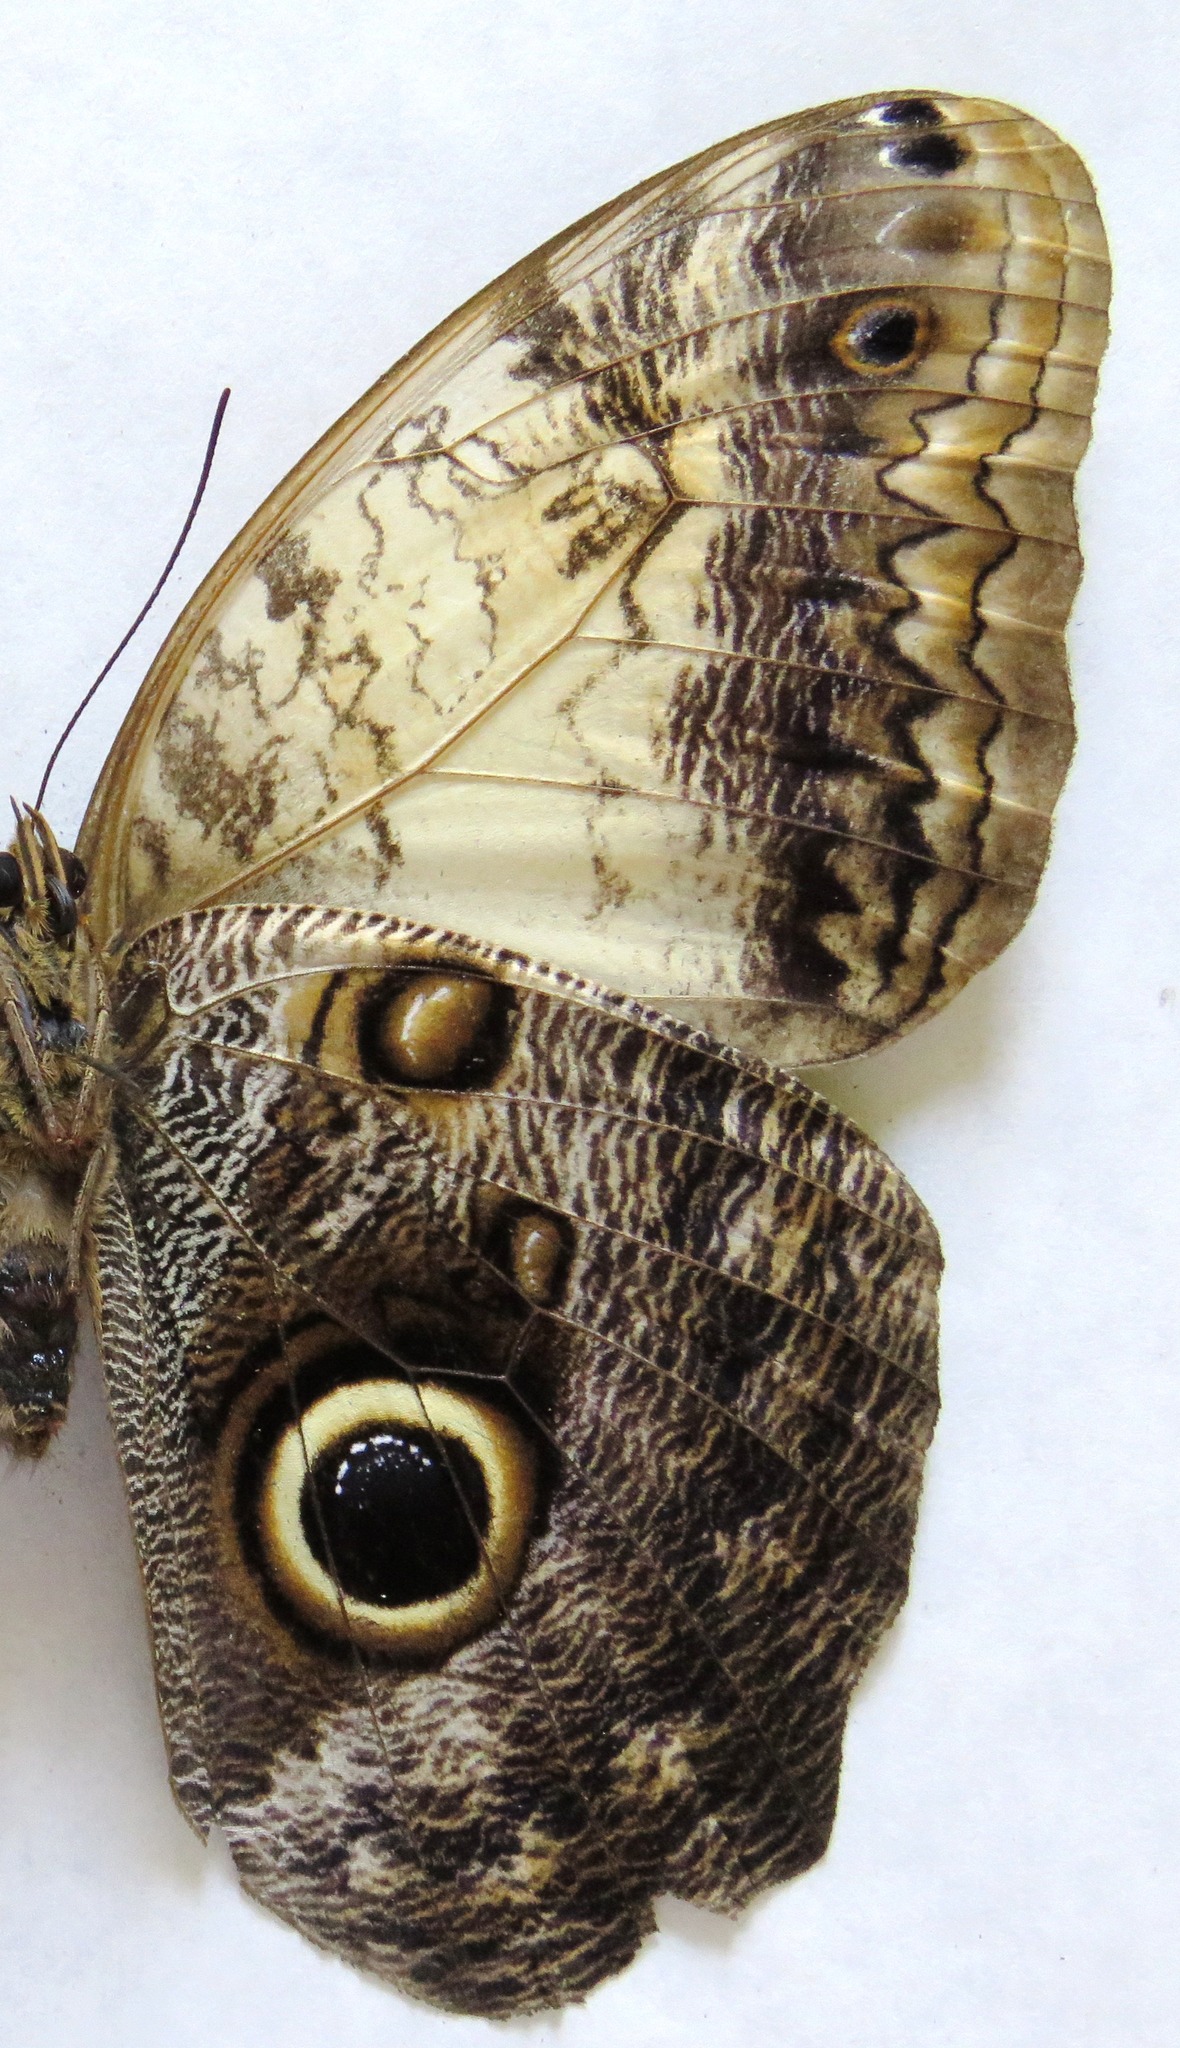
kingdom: Animalia
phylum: Arthropoda
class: Insecta
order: Lepidoptera
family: Nymphalidae
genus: Caligo
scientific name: Caligo telamonius
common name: Pale owl-butterfly
